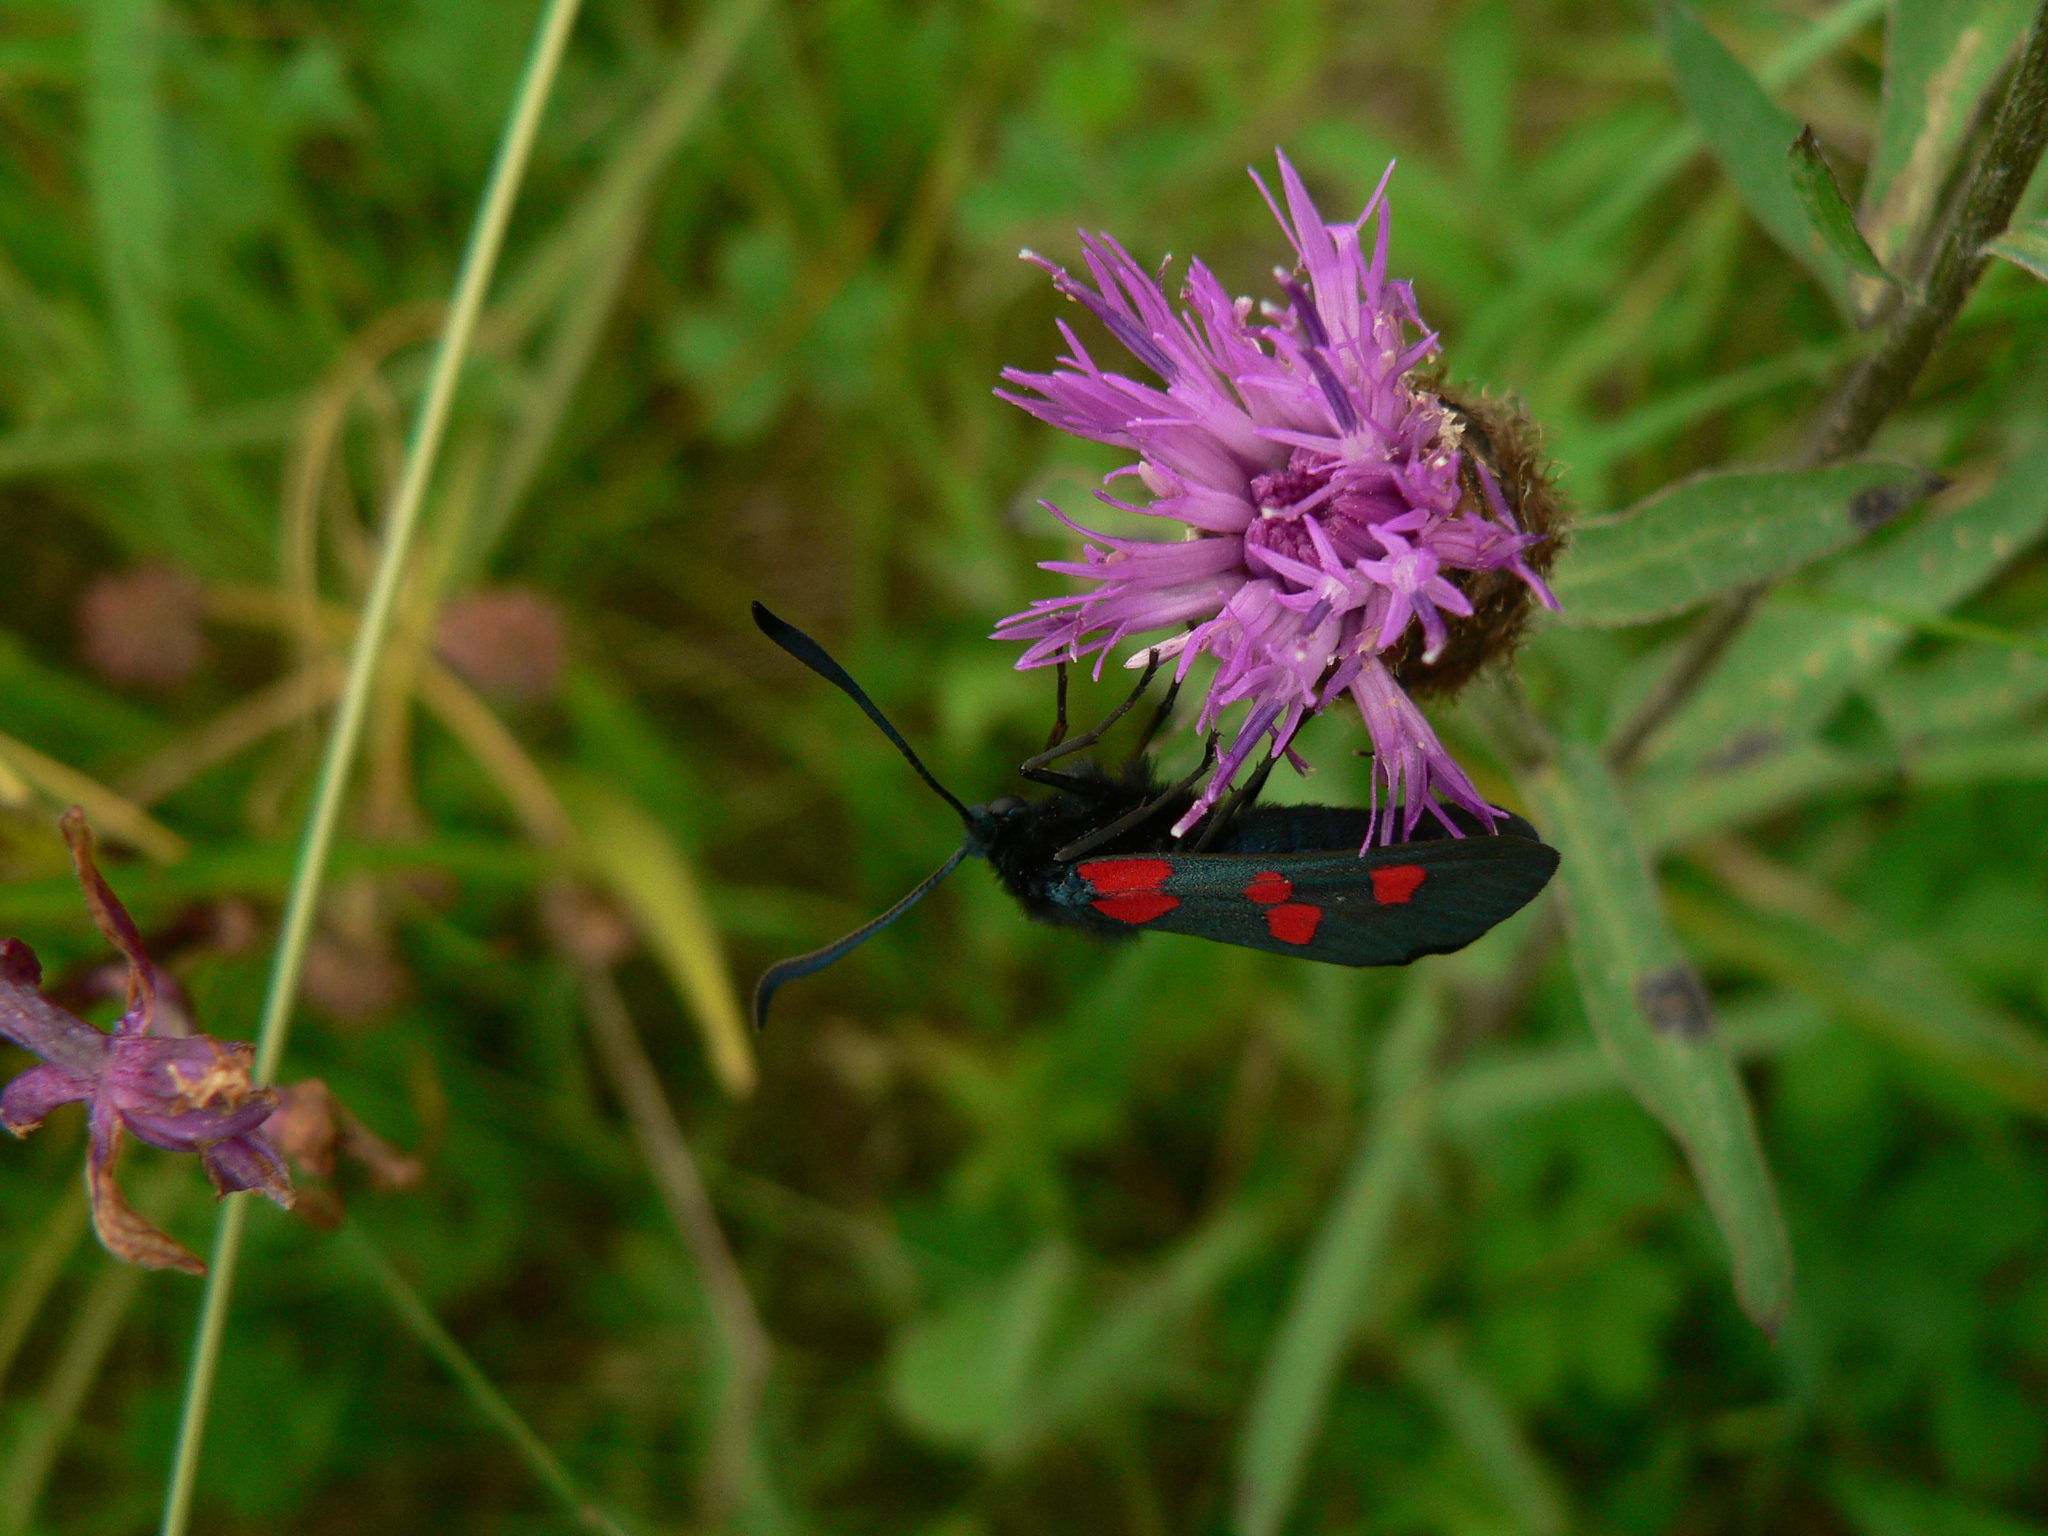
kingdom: Animalia
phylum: Arthropoda
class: Insecta
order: Lepidoptera
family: Zygaenidae
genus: Zygaena
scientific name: Zygaena trifolii
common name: Five-spot burnet
